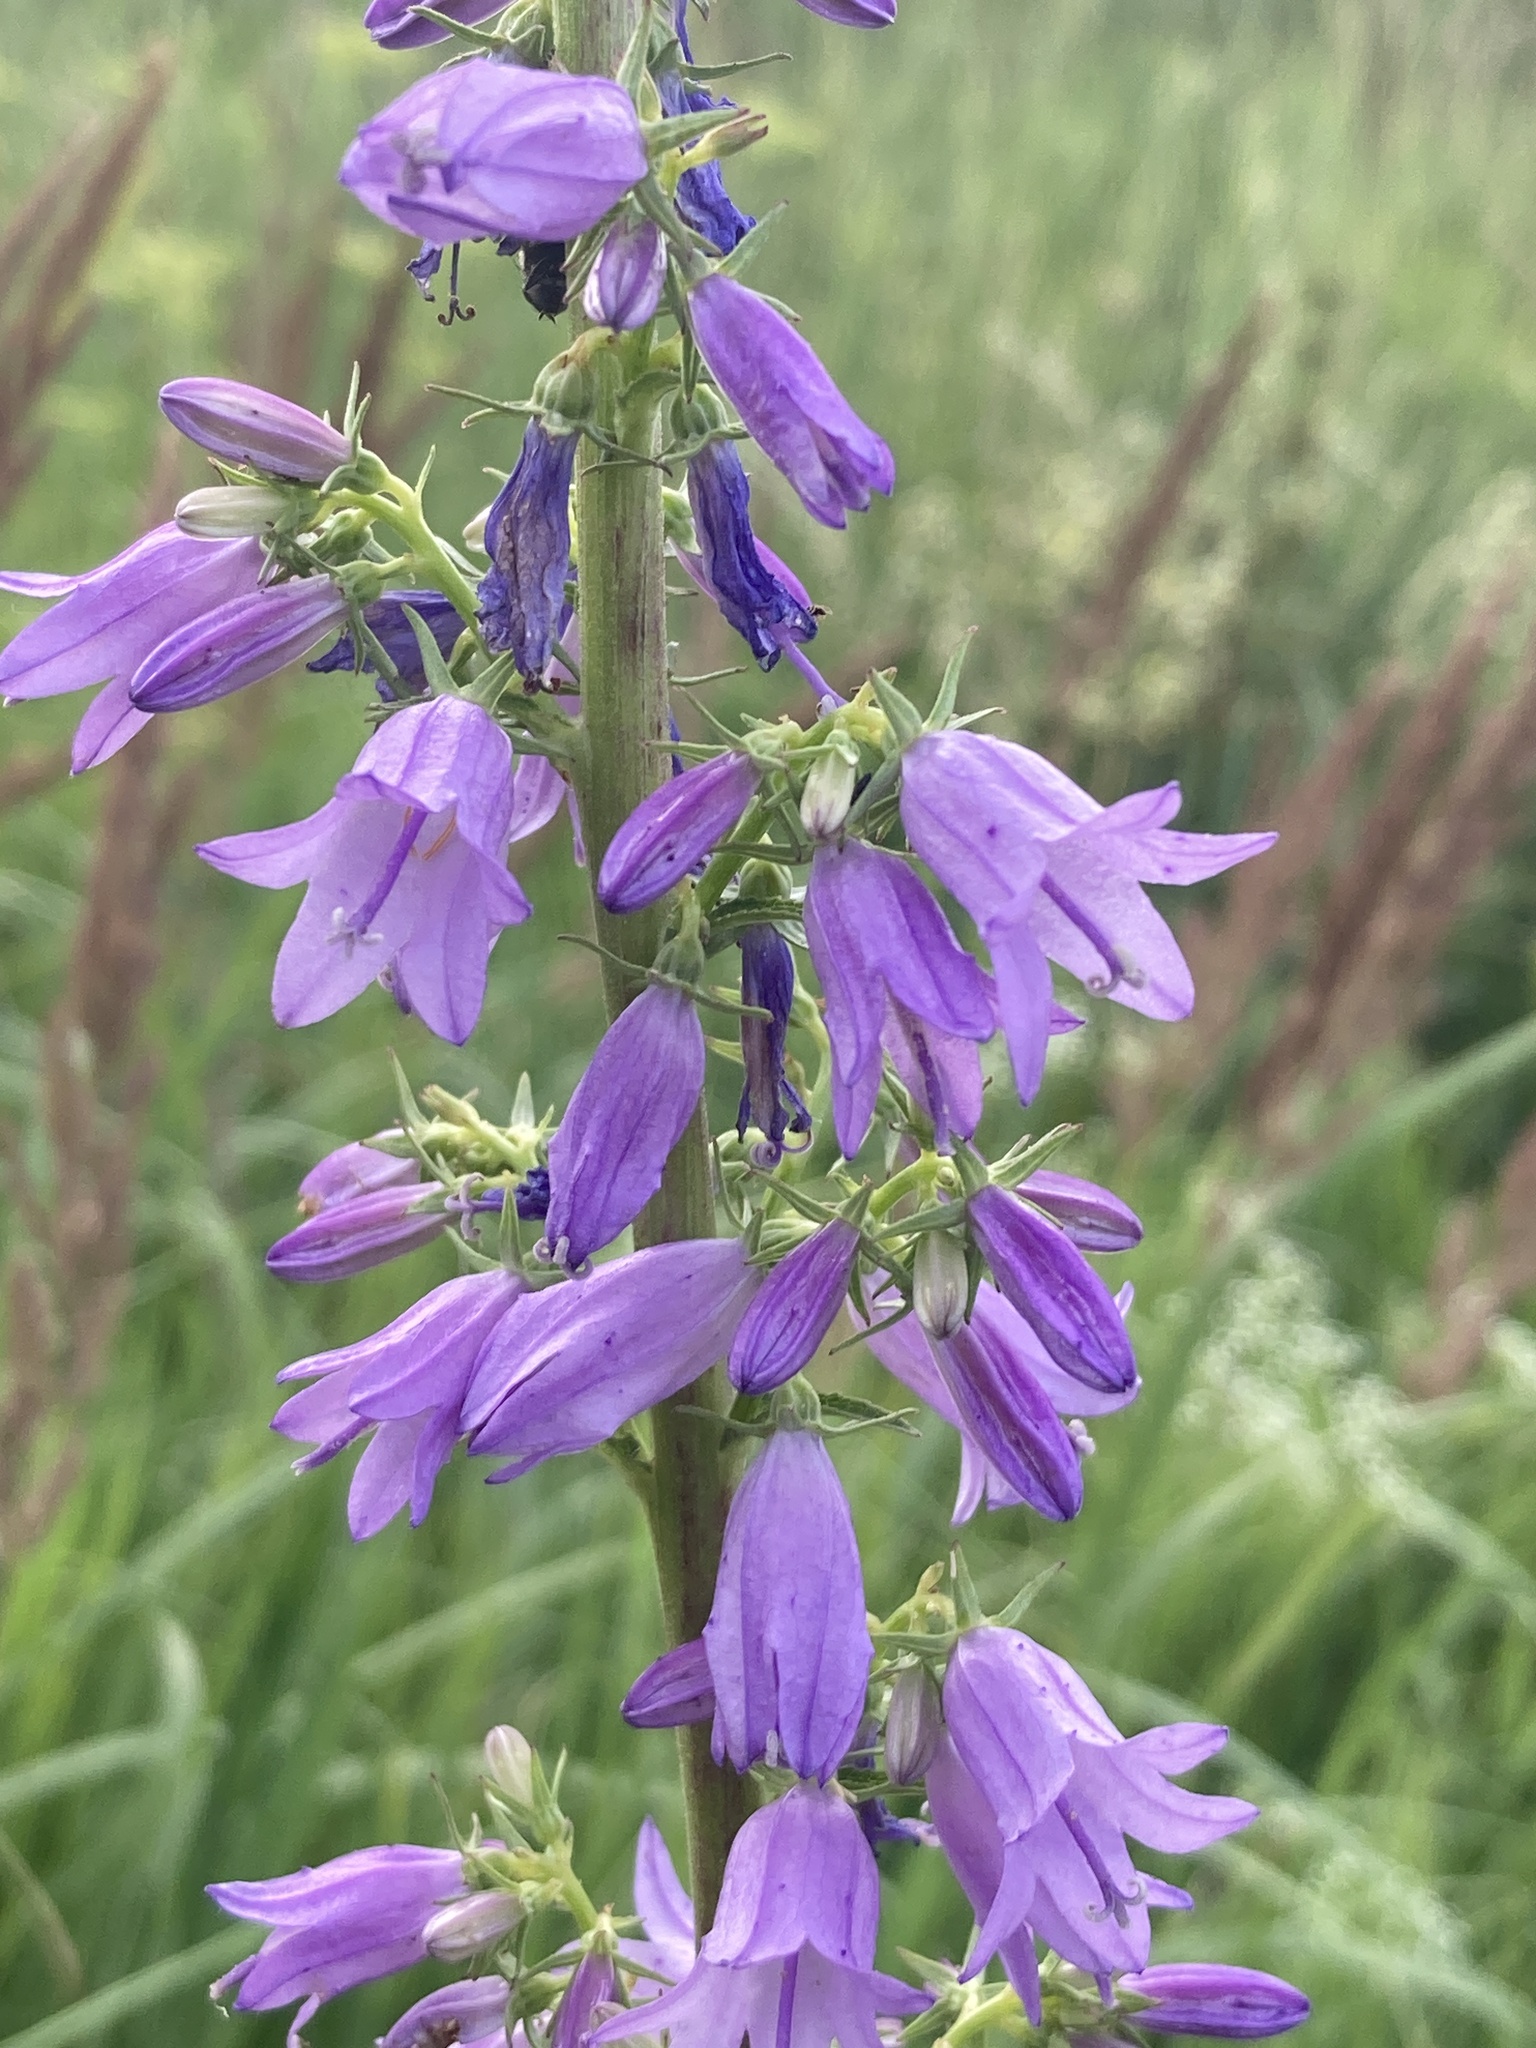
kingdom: Plantae
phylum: Tracheophyta
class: Magnoliopsida
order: Asterales
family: Campanulaceae
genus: Campanula
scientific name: Campanula bononiensis
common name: Pale bellflower
